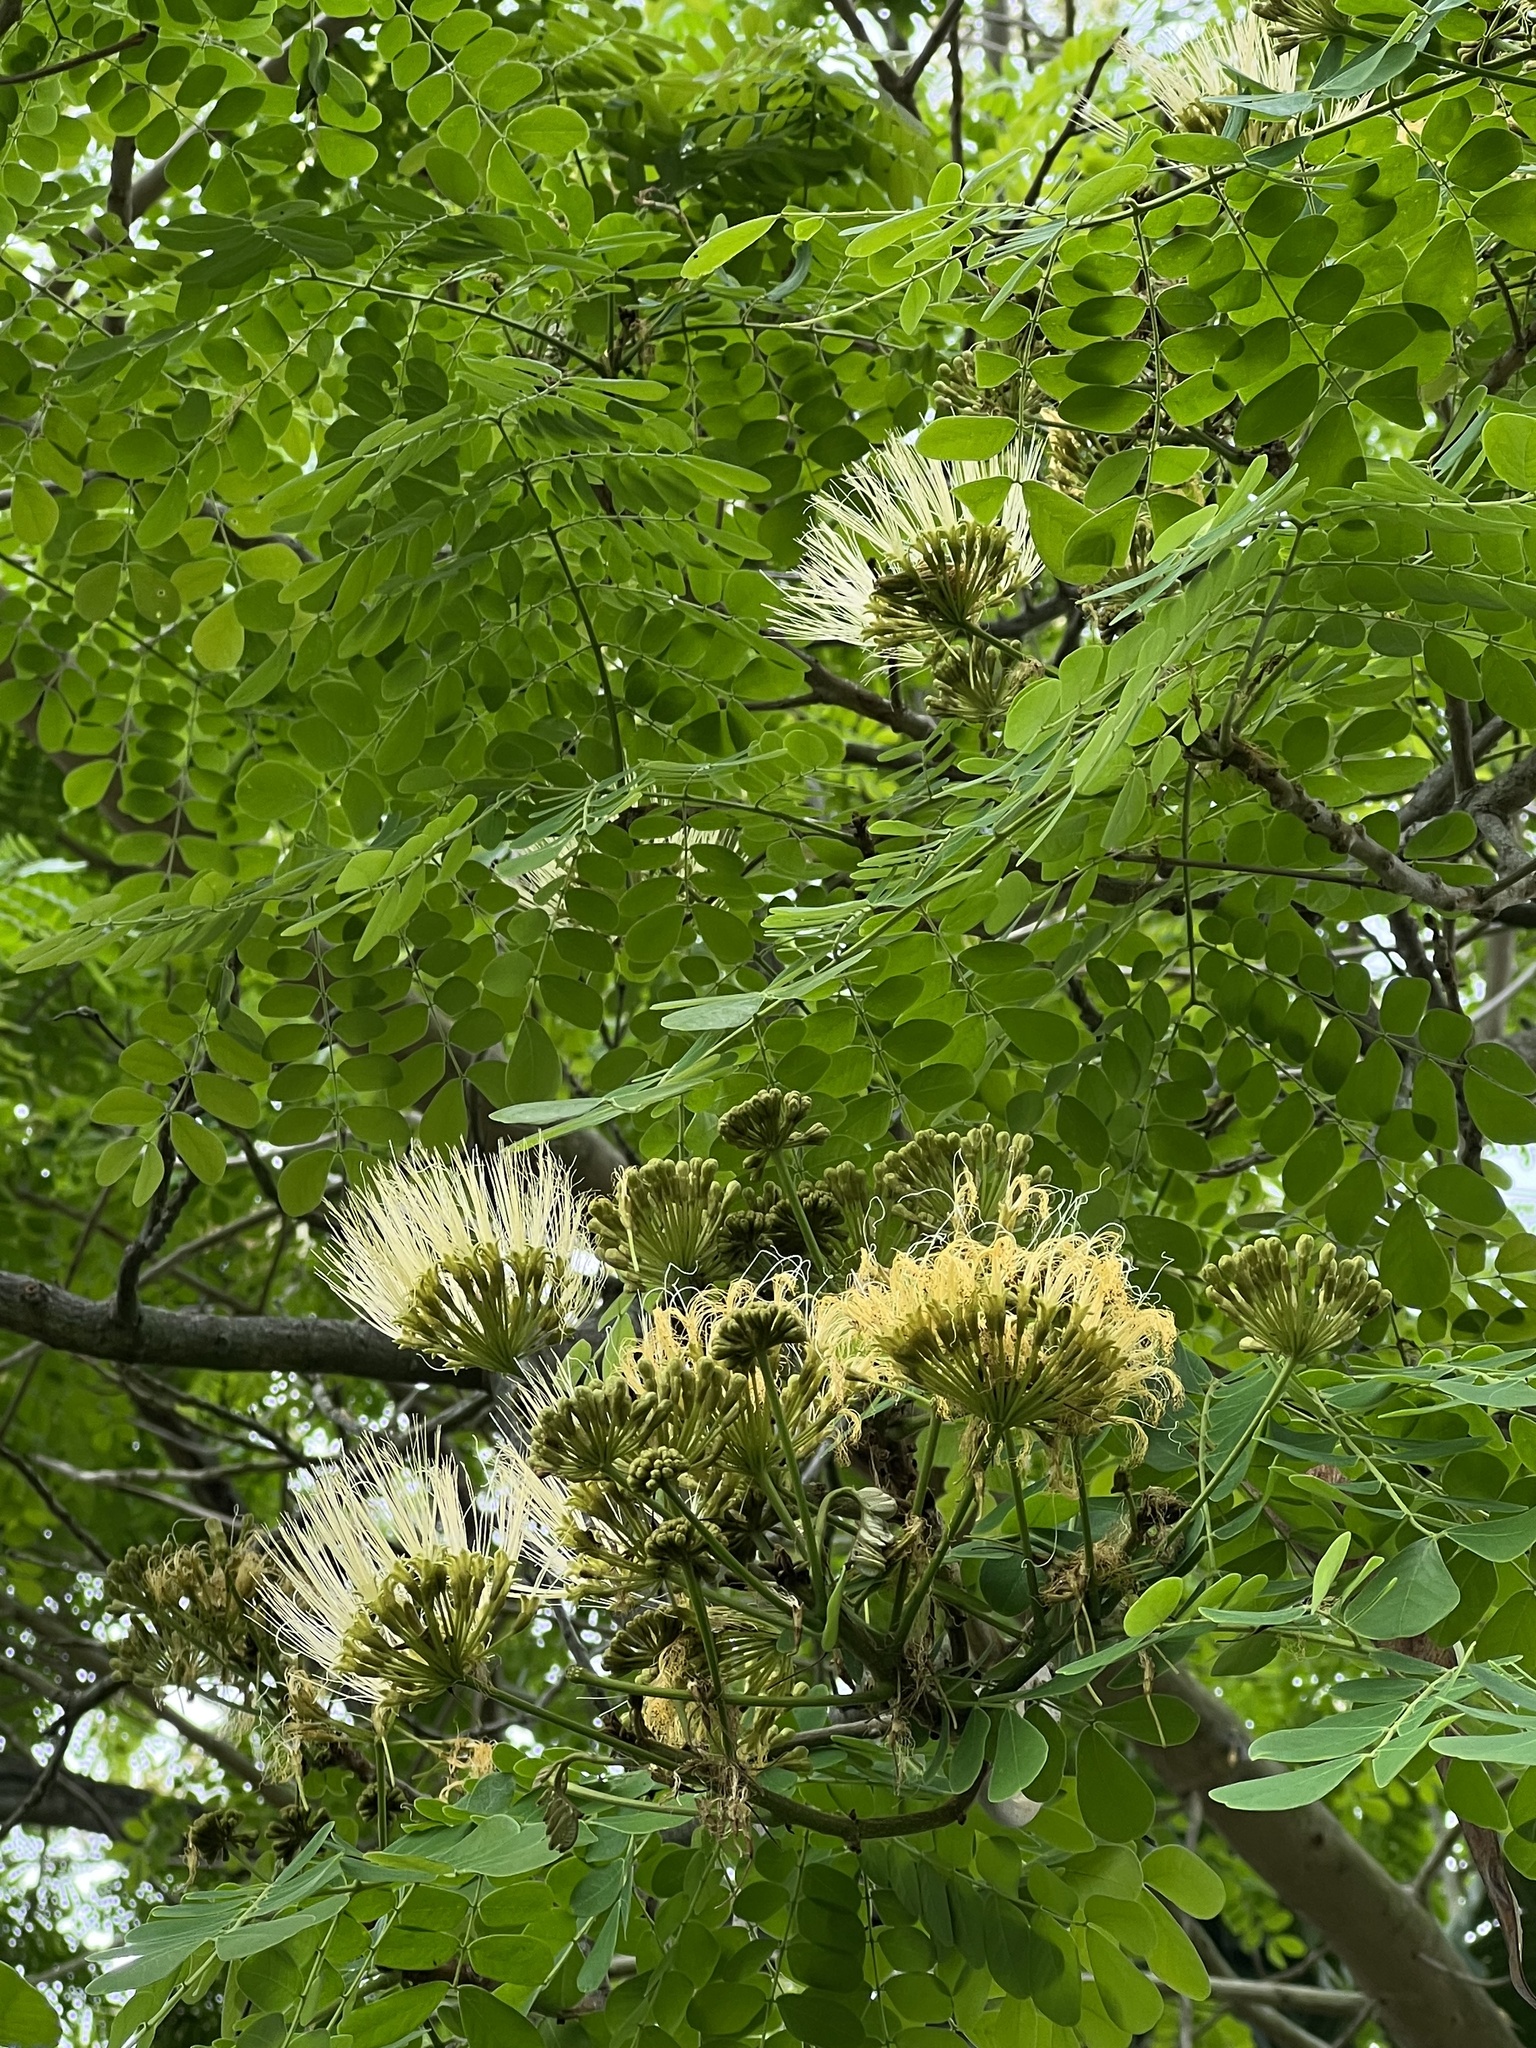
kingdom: Plantae
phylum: Tracheophyta
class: Magnoliopsida
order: Fabales
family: Fabaceae
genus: Pseudosamanea
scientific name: Pseudosamanea guachapele
